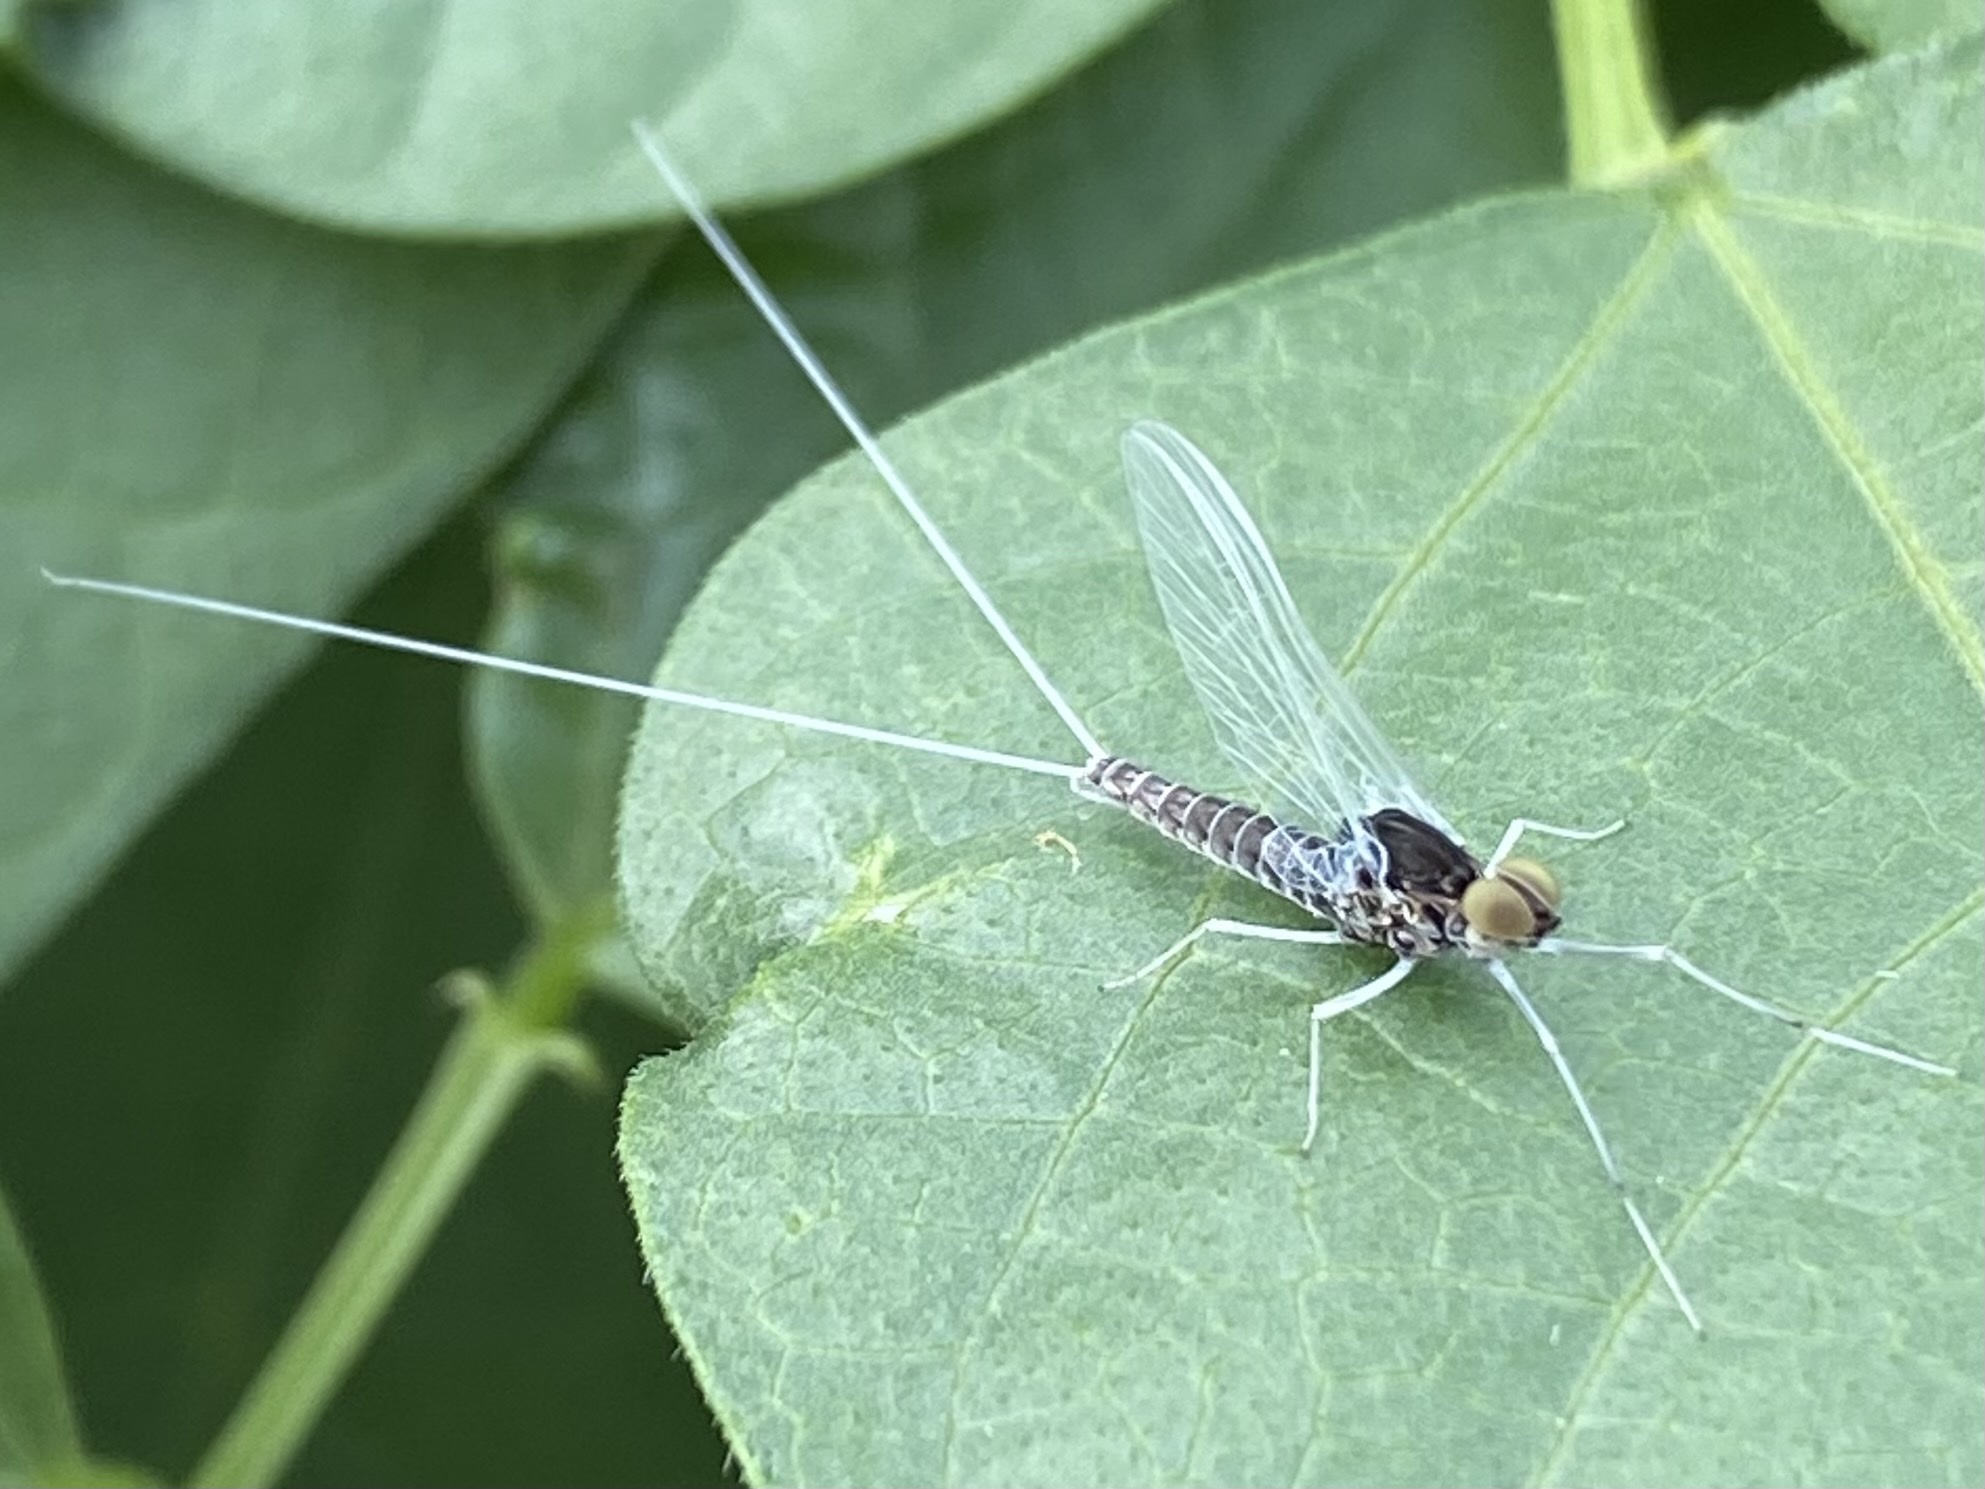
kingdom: Animalia
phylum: Arthropoda
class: Insecta
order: Ephemeroptera
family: Baetidae
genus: Callibaetis
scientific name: Callibaetis
